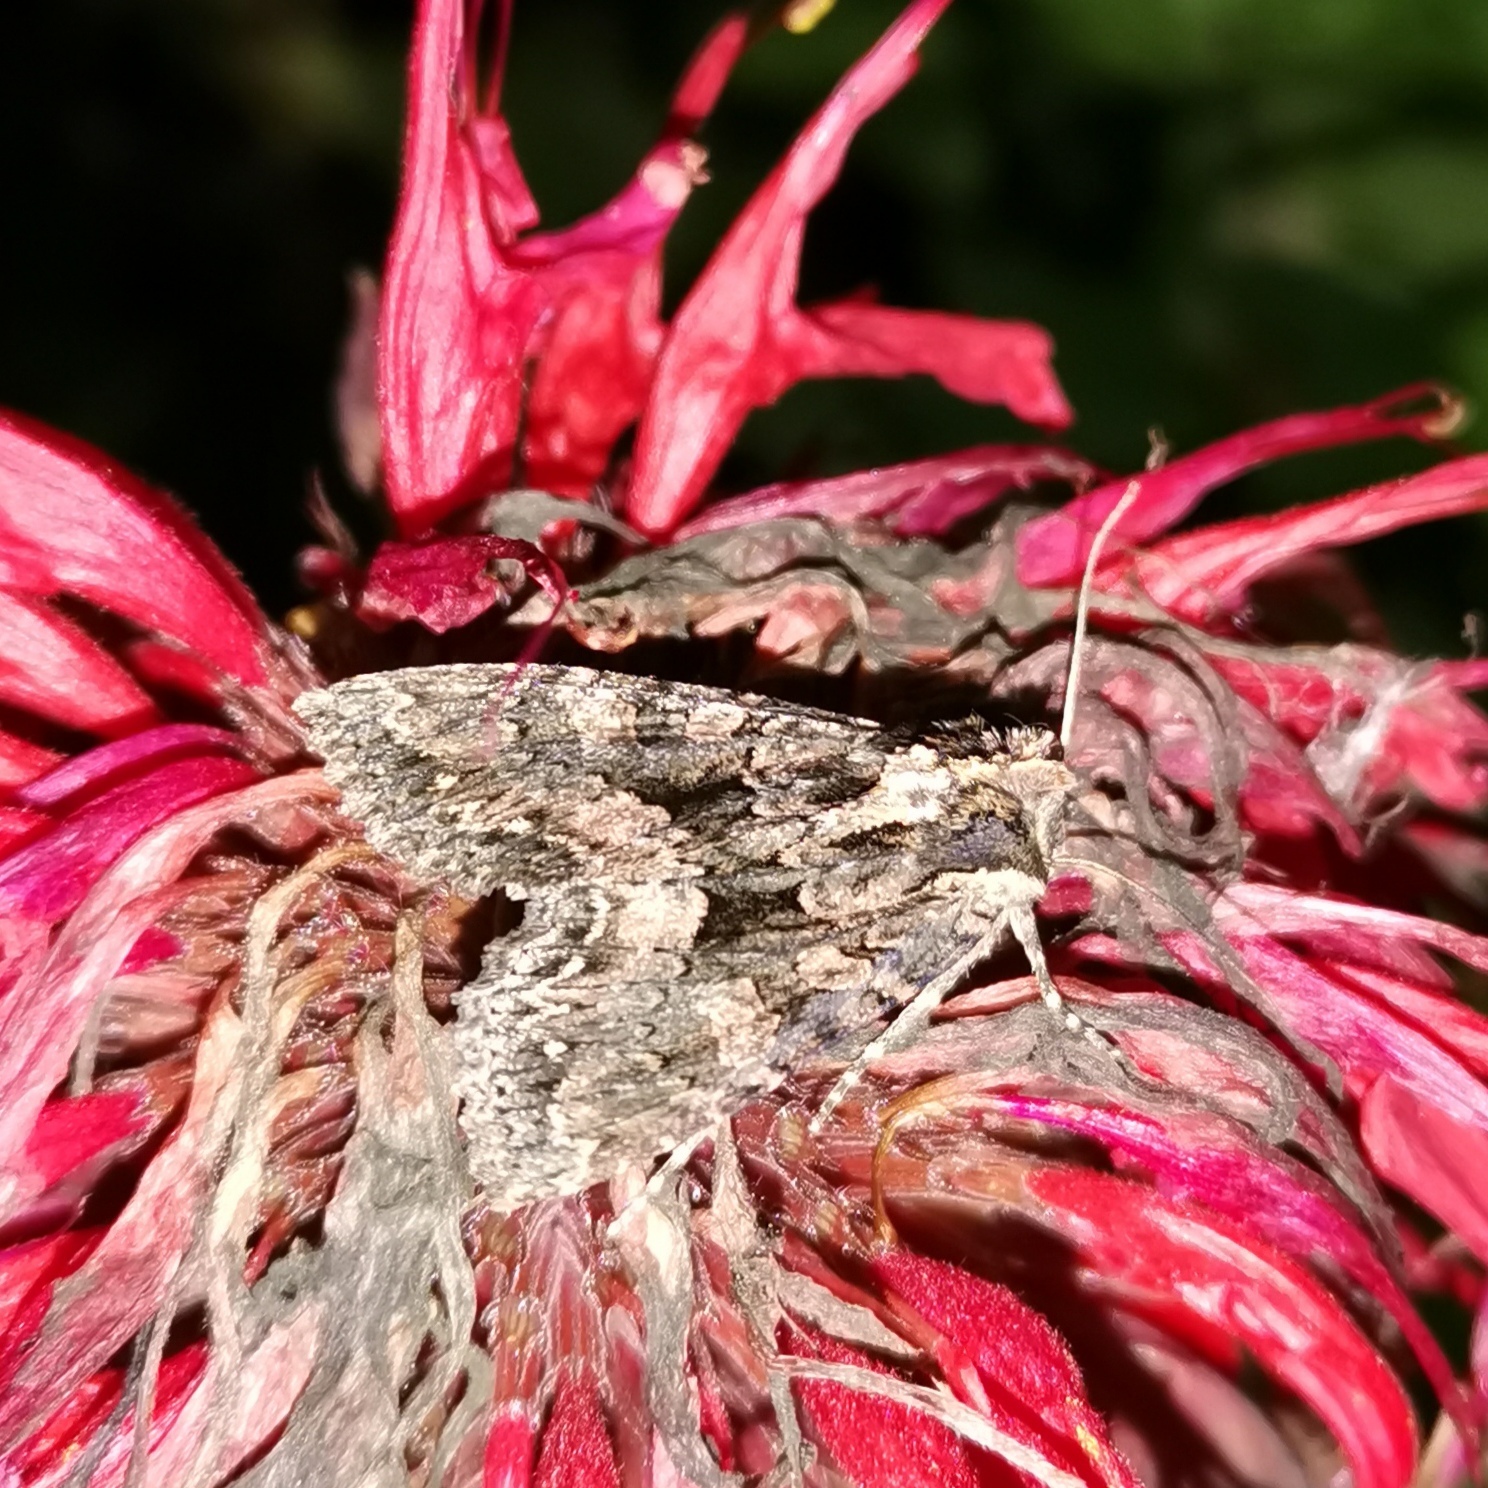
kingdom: Animalia
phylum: Arthropoda
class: Insecta
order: Lepidoptera
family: Noctuidae
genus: Mniotype
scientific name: Mniotype satura
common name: Beautiful arches
